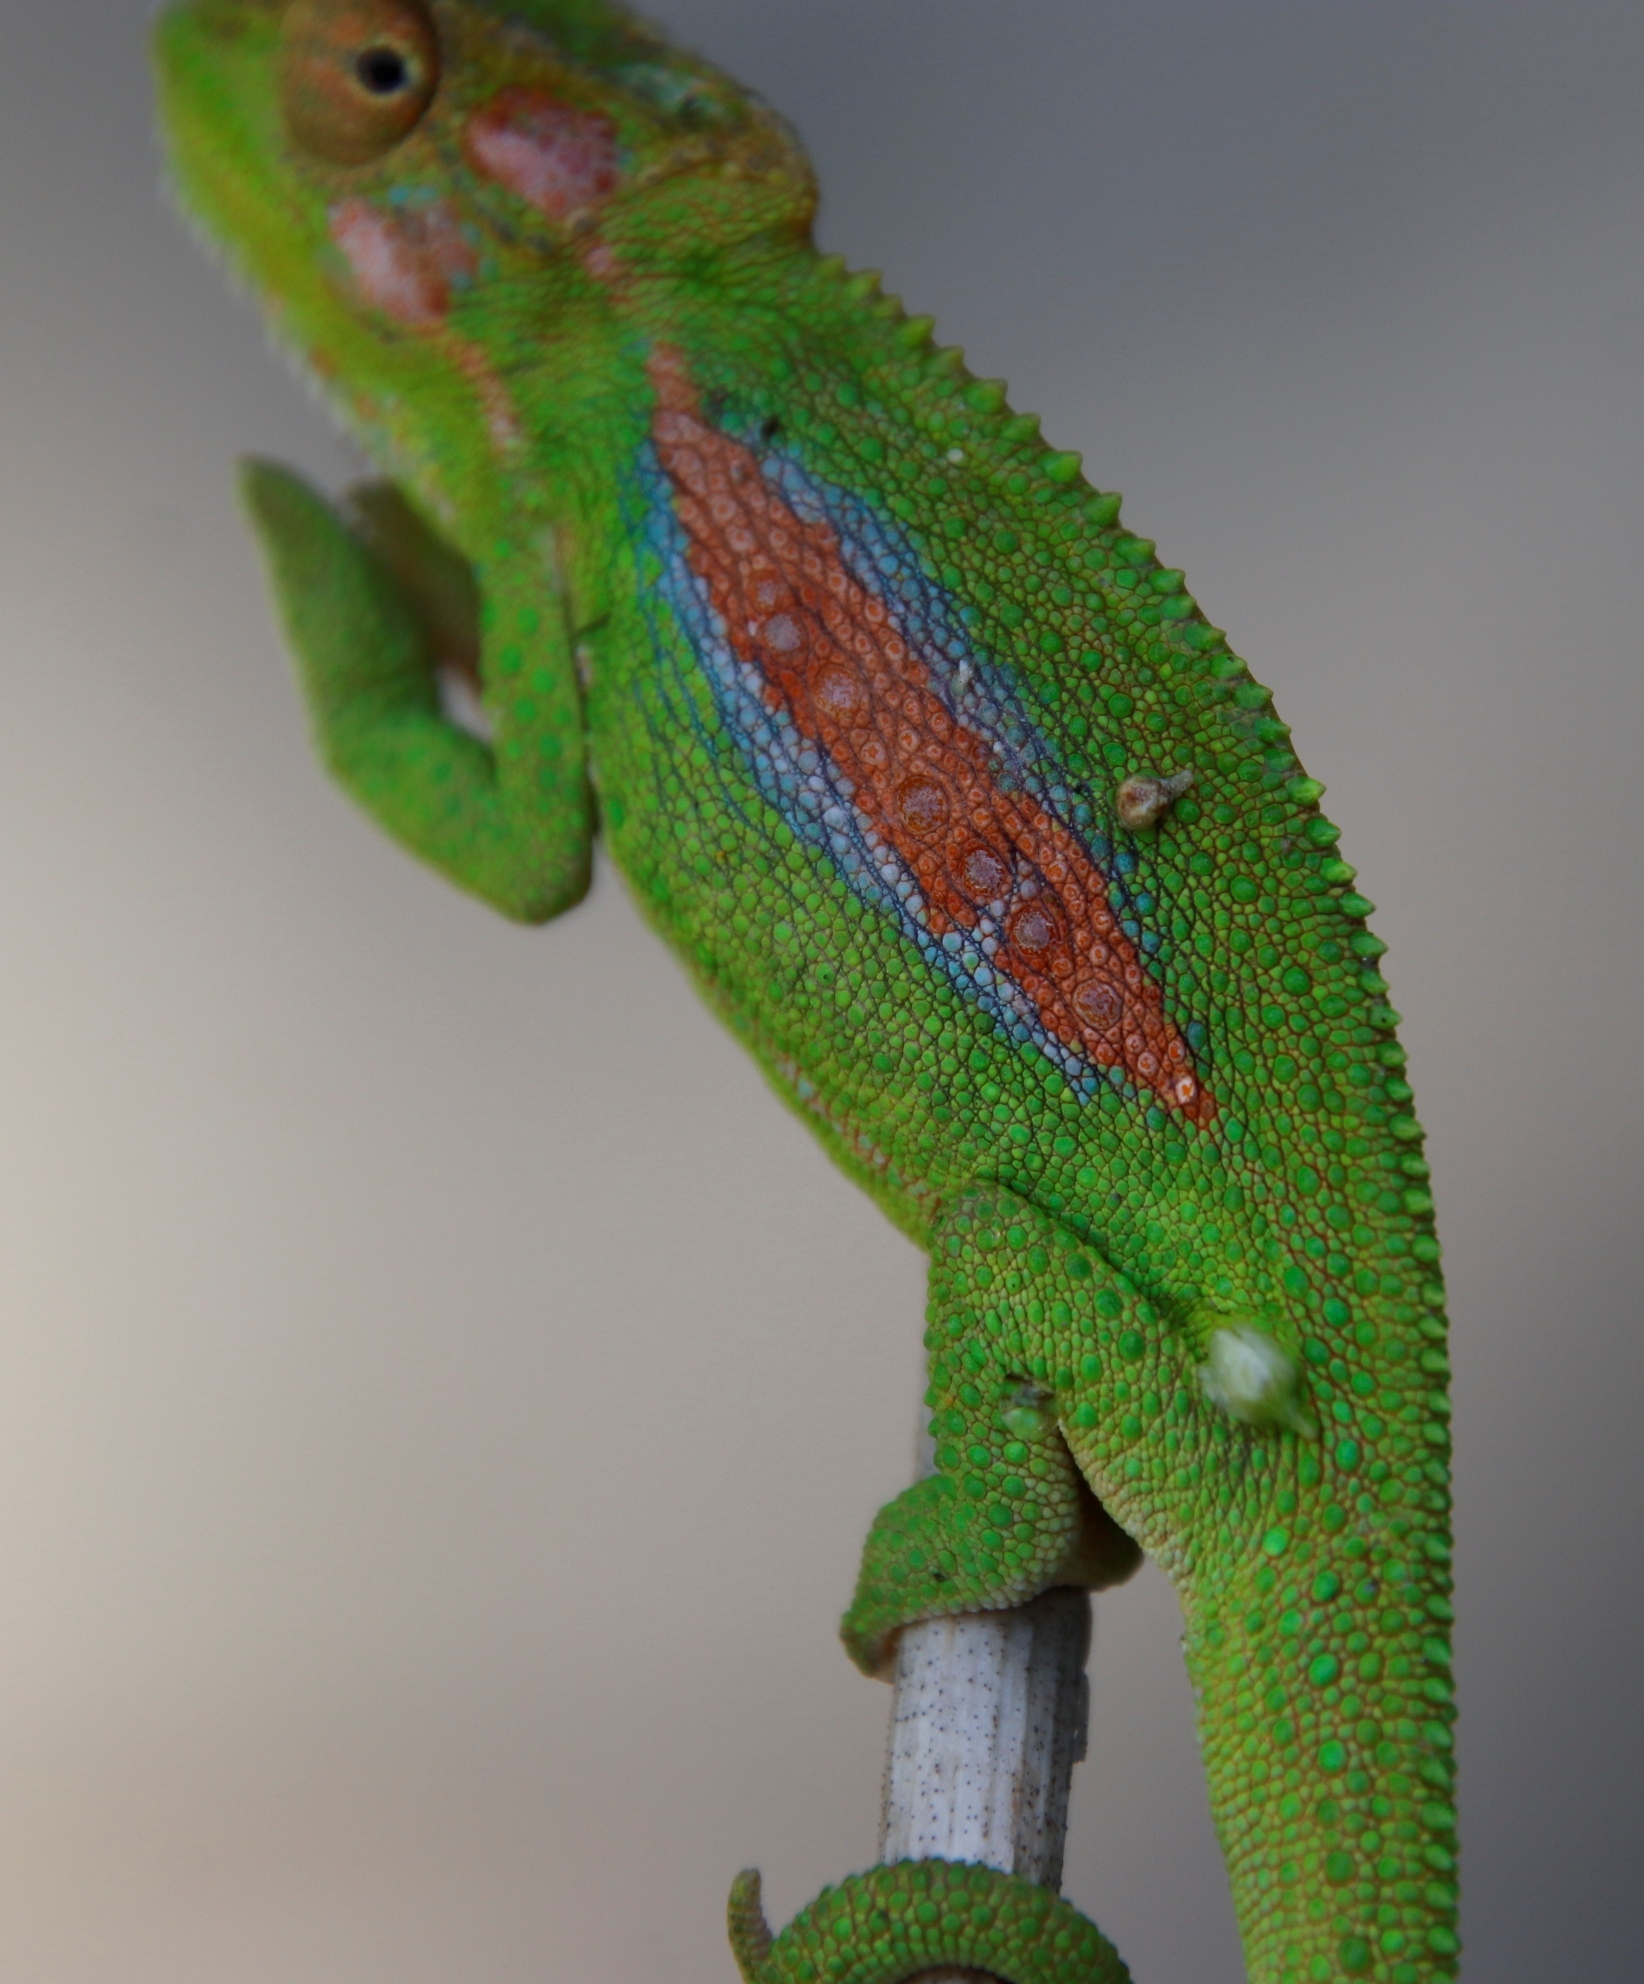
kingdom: Animalia
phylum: Chordata
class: Squamata
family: Chamaeleonidae
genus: Bradypodion
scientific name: Bradypodion pumilum
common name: Cape dwarf chameleon
